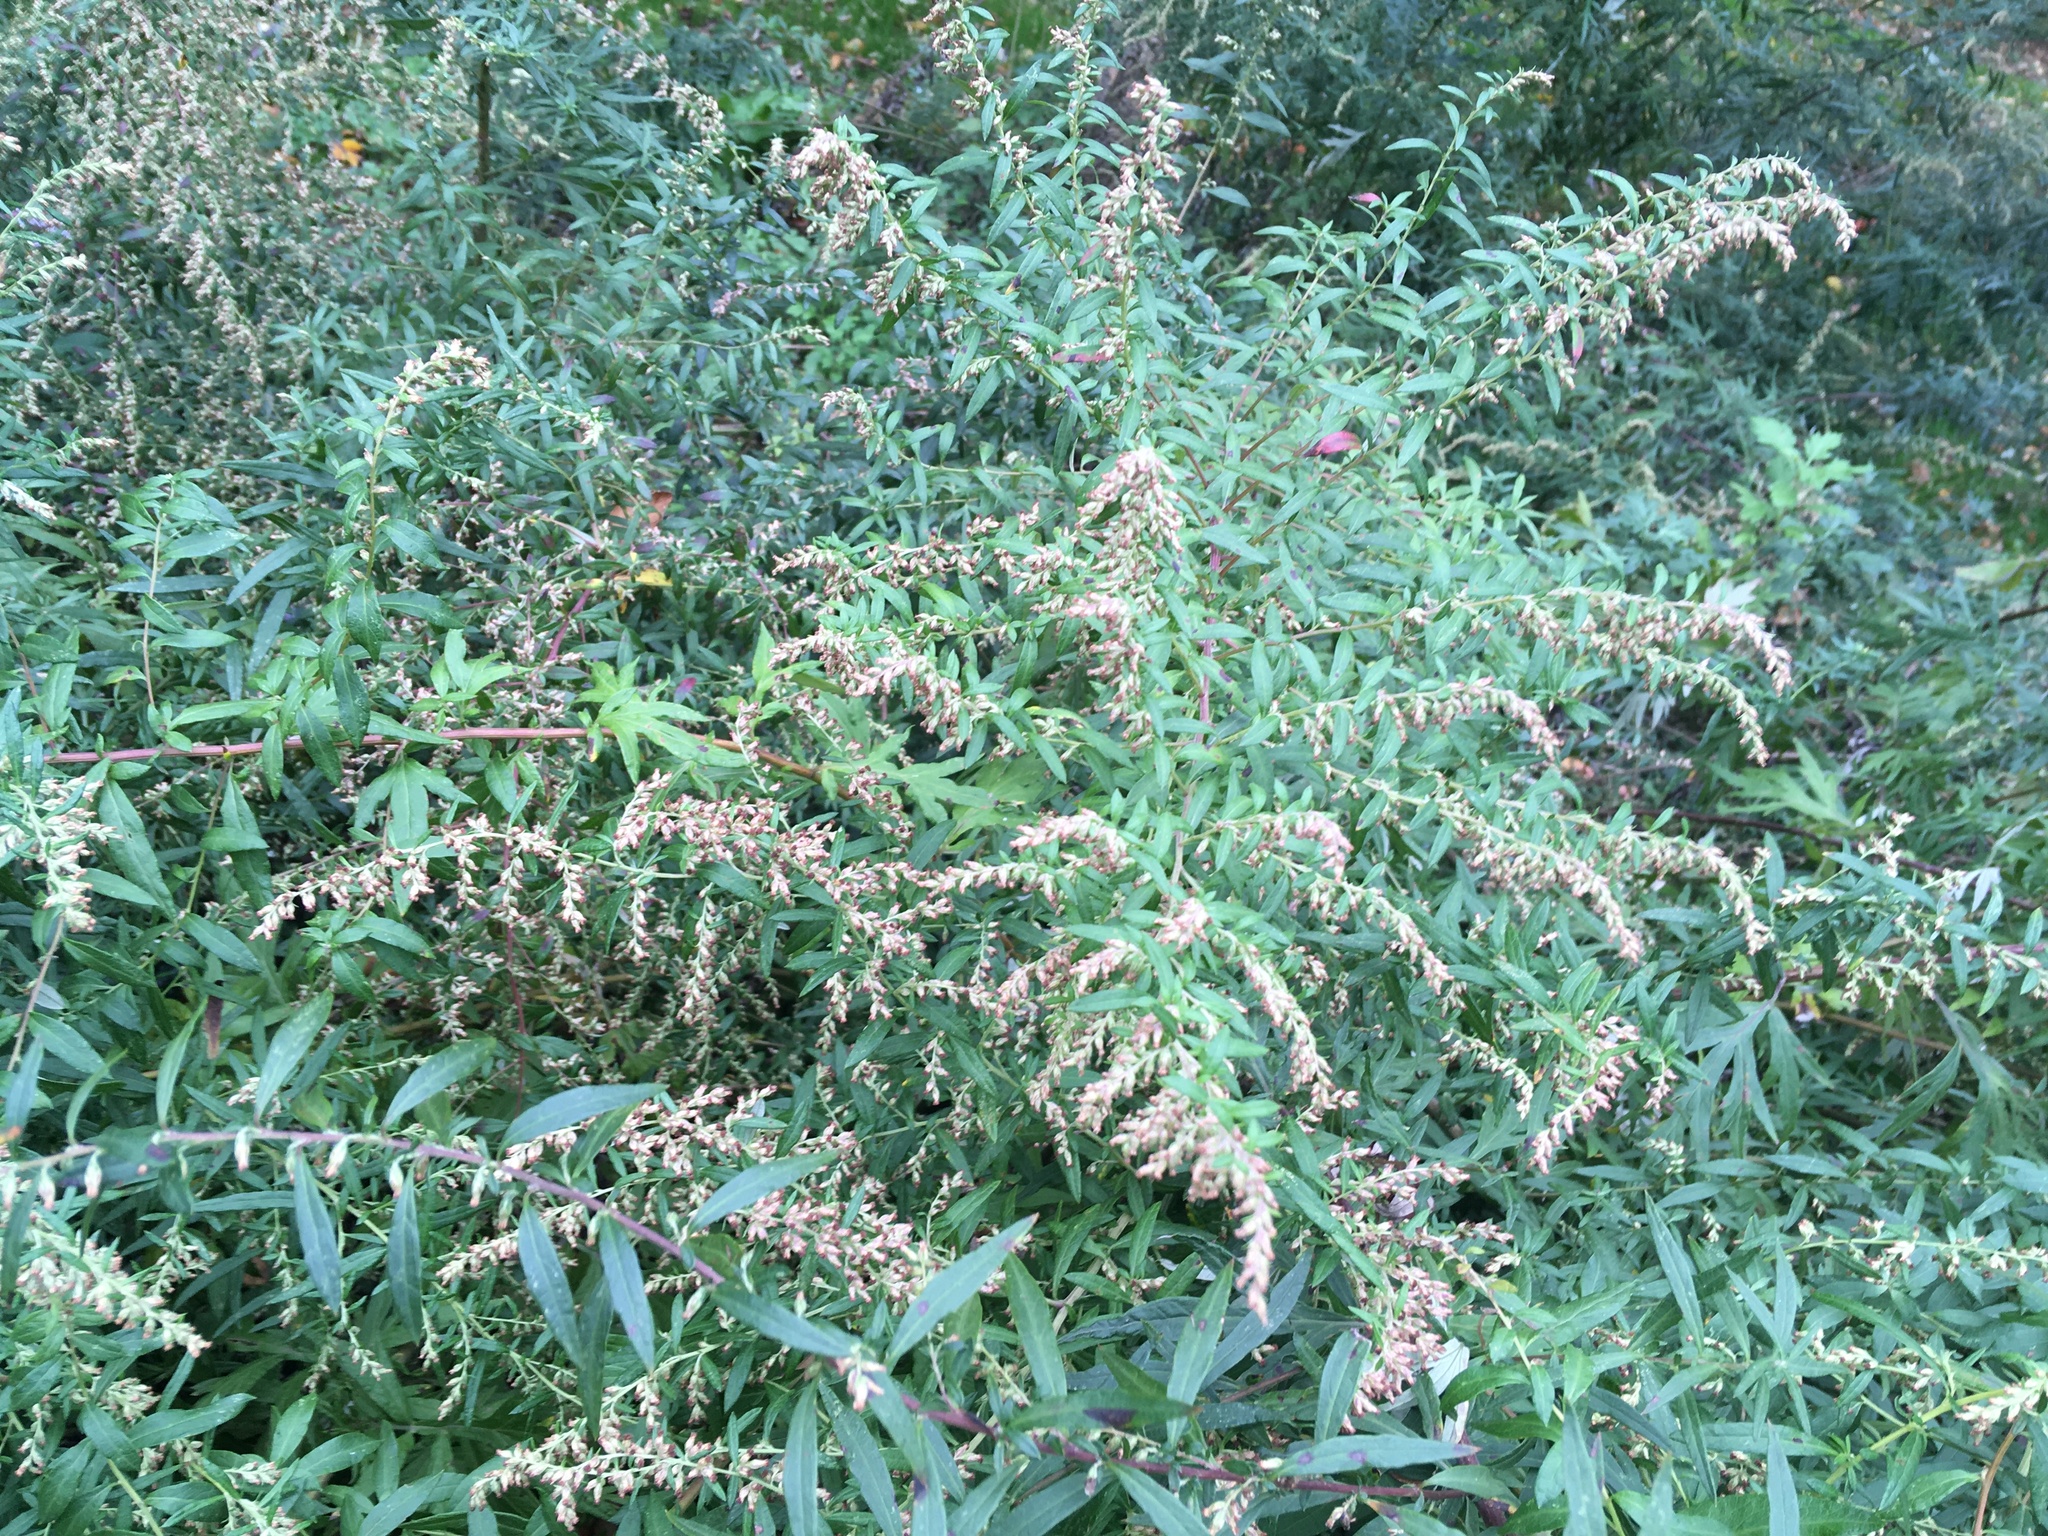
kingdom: Plantae
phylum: Tracheophyta
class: Magnoliopsida
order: Asterales
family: Asteraceae
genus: Artemisia
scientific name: Artemisia vulgaris
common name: Mugwort
